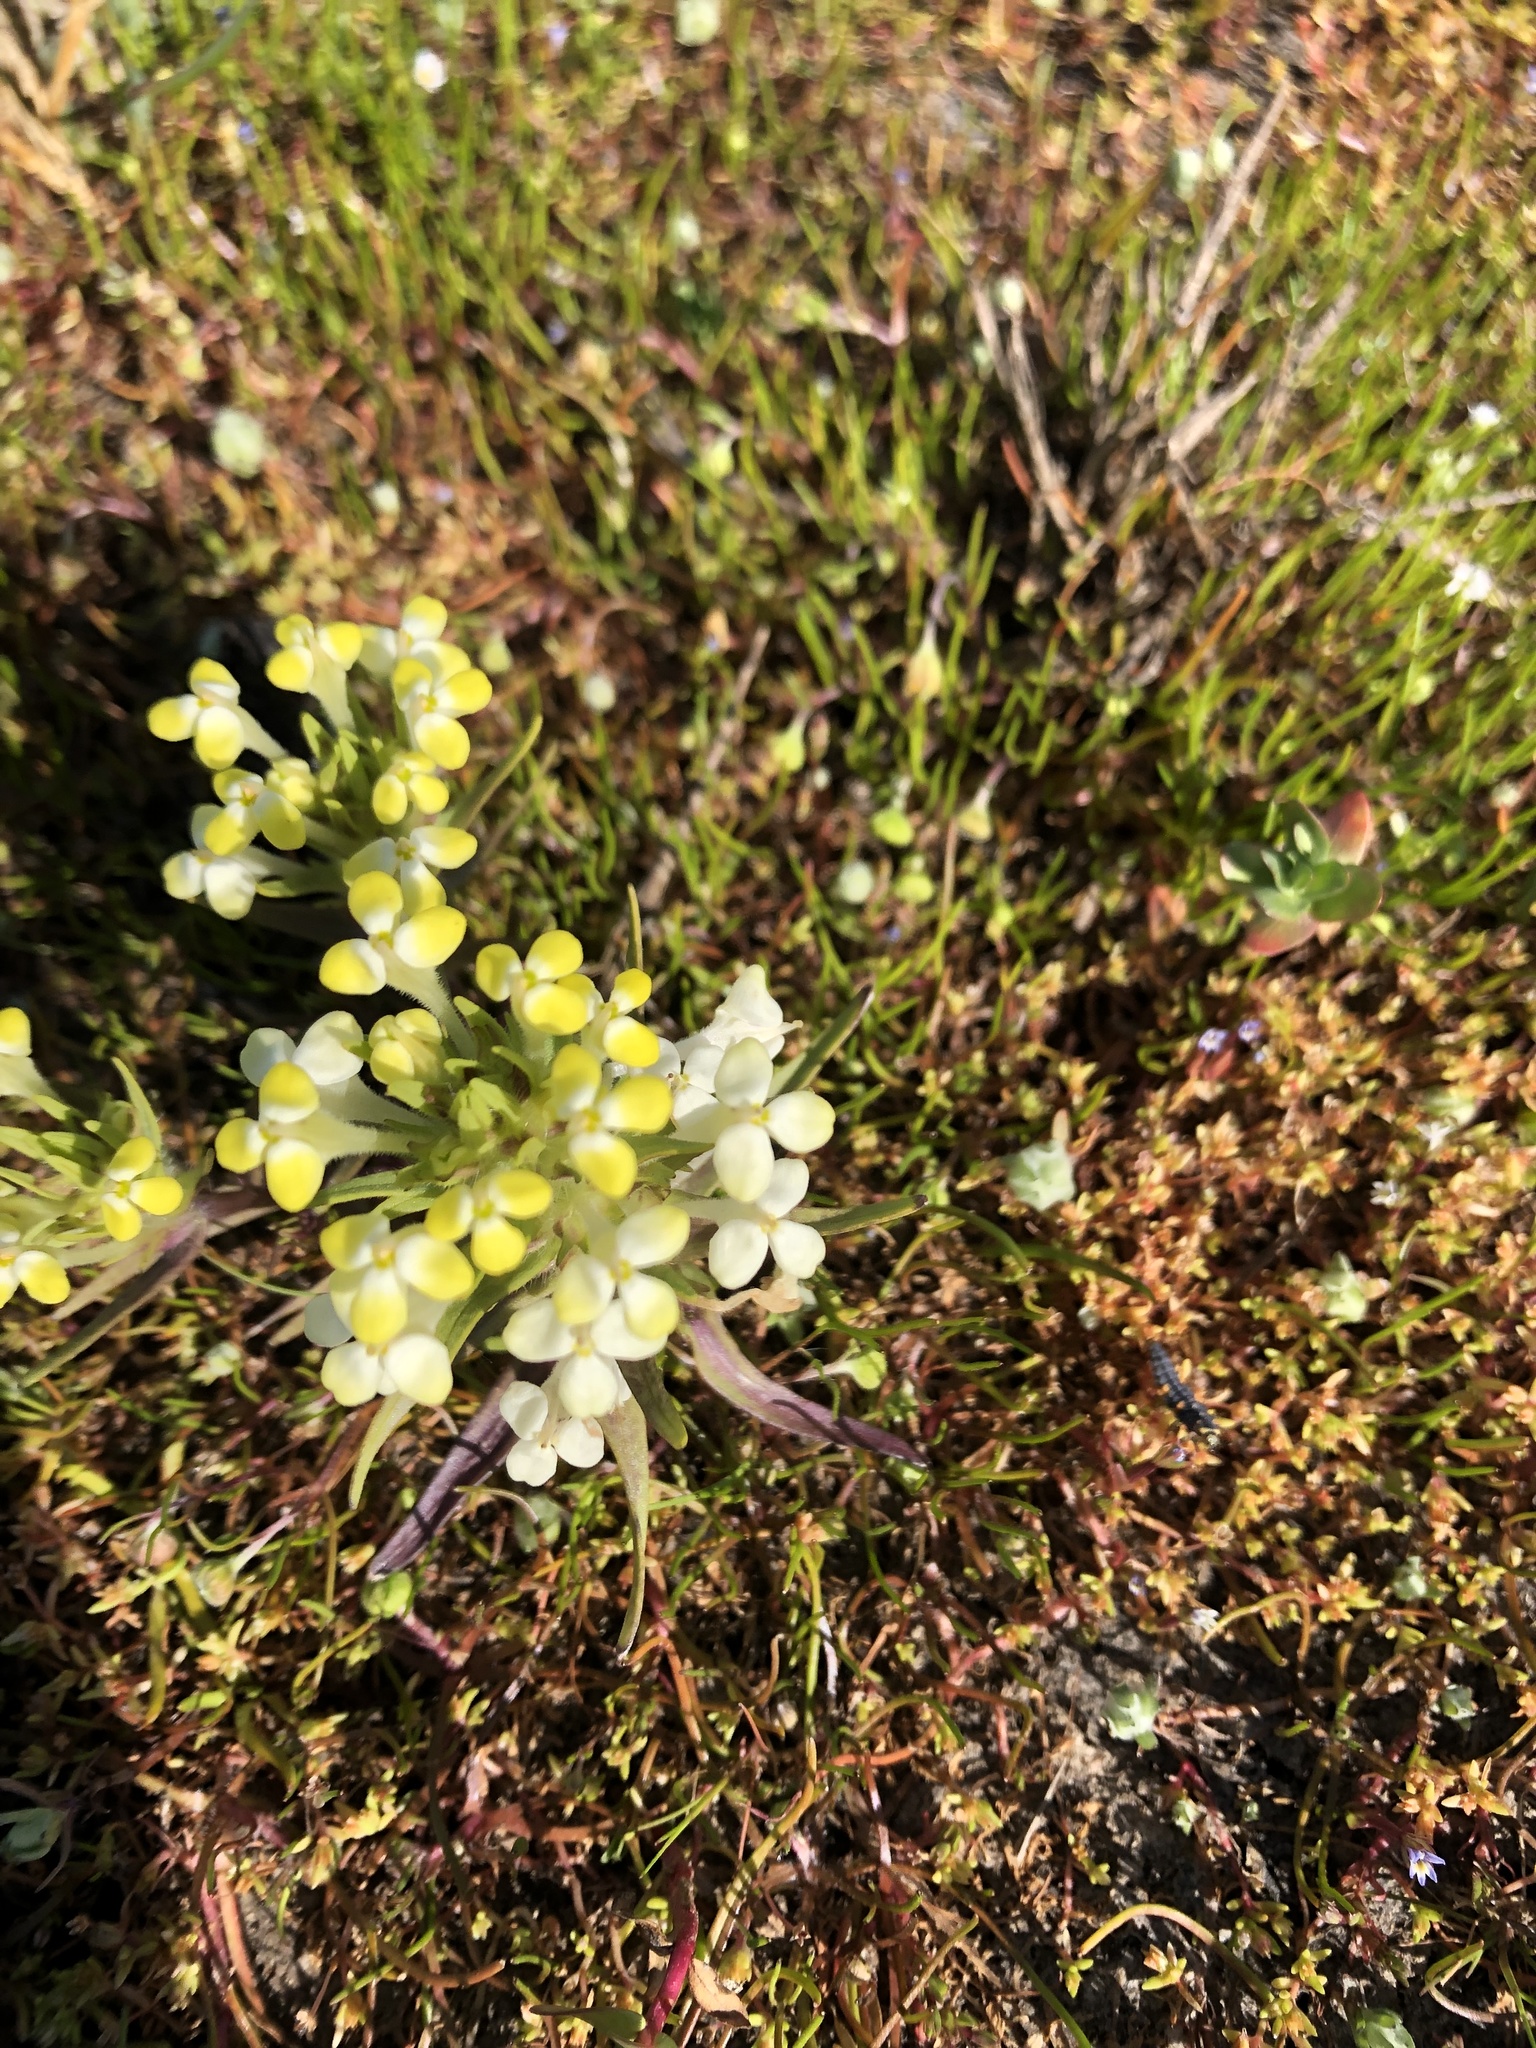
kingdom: Plantae
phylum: Tracheophyta
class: Magnoliopsida
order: Lamiales
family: Orobanchaceae
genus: Castilleja
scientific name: Castilleja campestris
